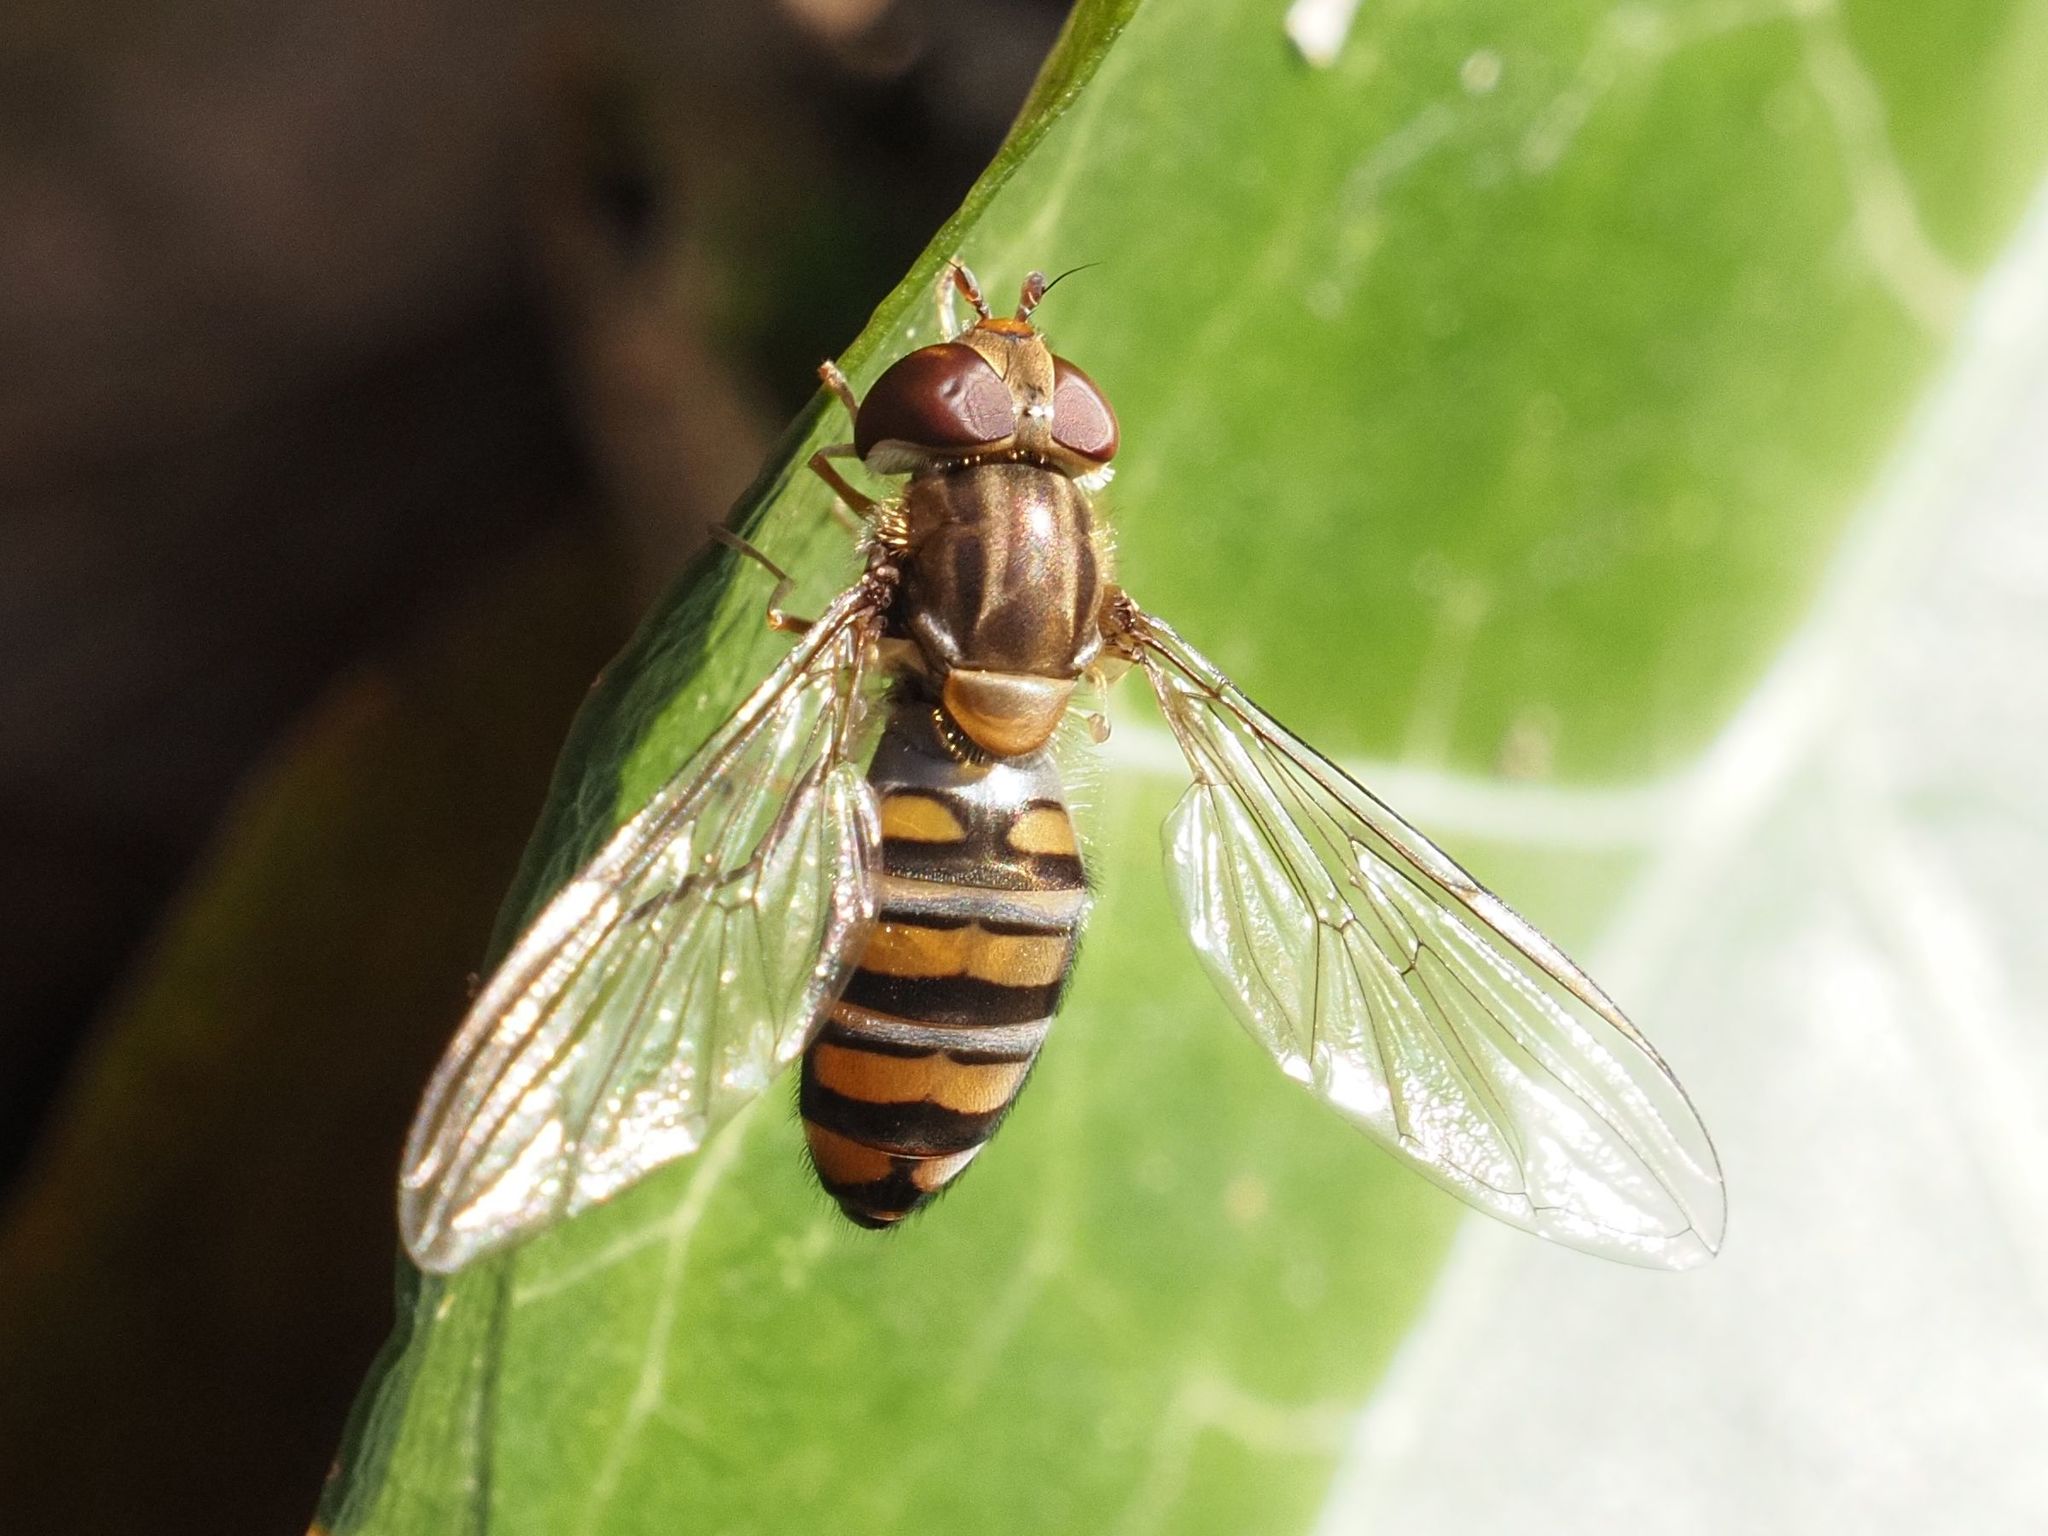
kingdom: Animalia
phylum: Arthropoda
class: Insecta
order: Diptera
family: Syrphidae
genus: Episyrphus
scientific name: Episyrphus balteatus
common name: Marmalade hoverfly
